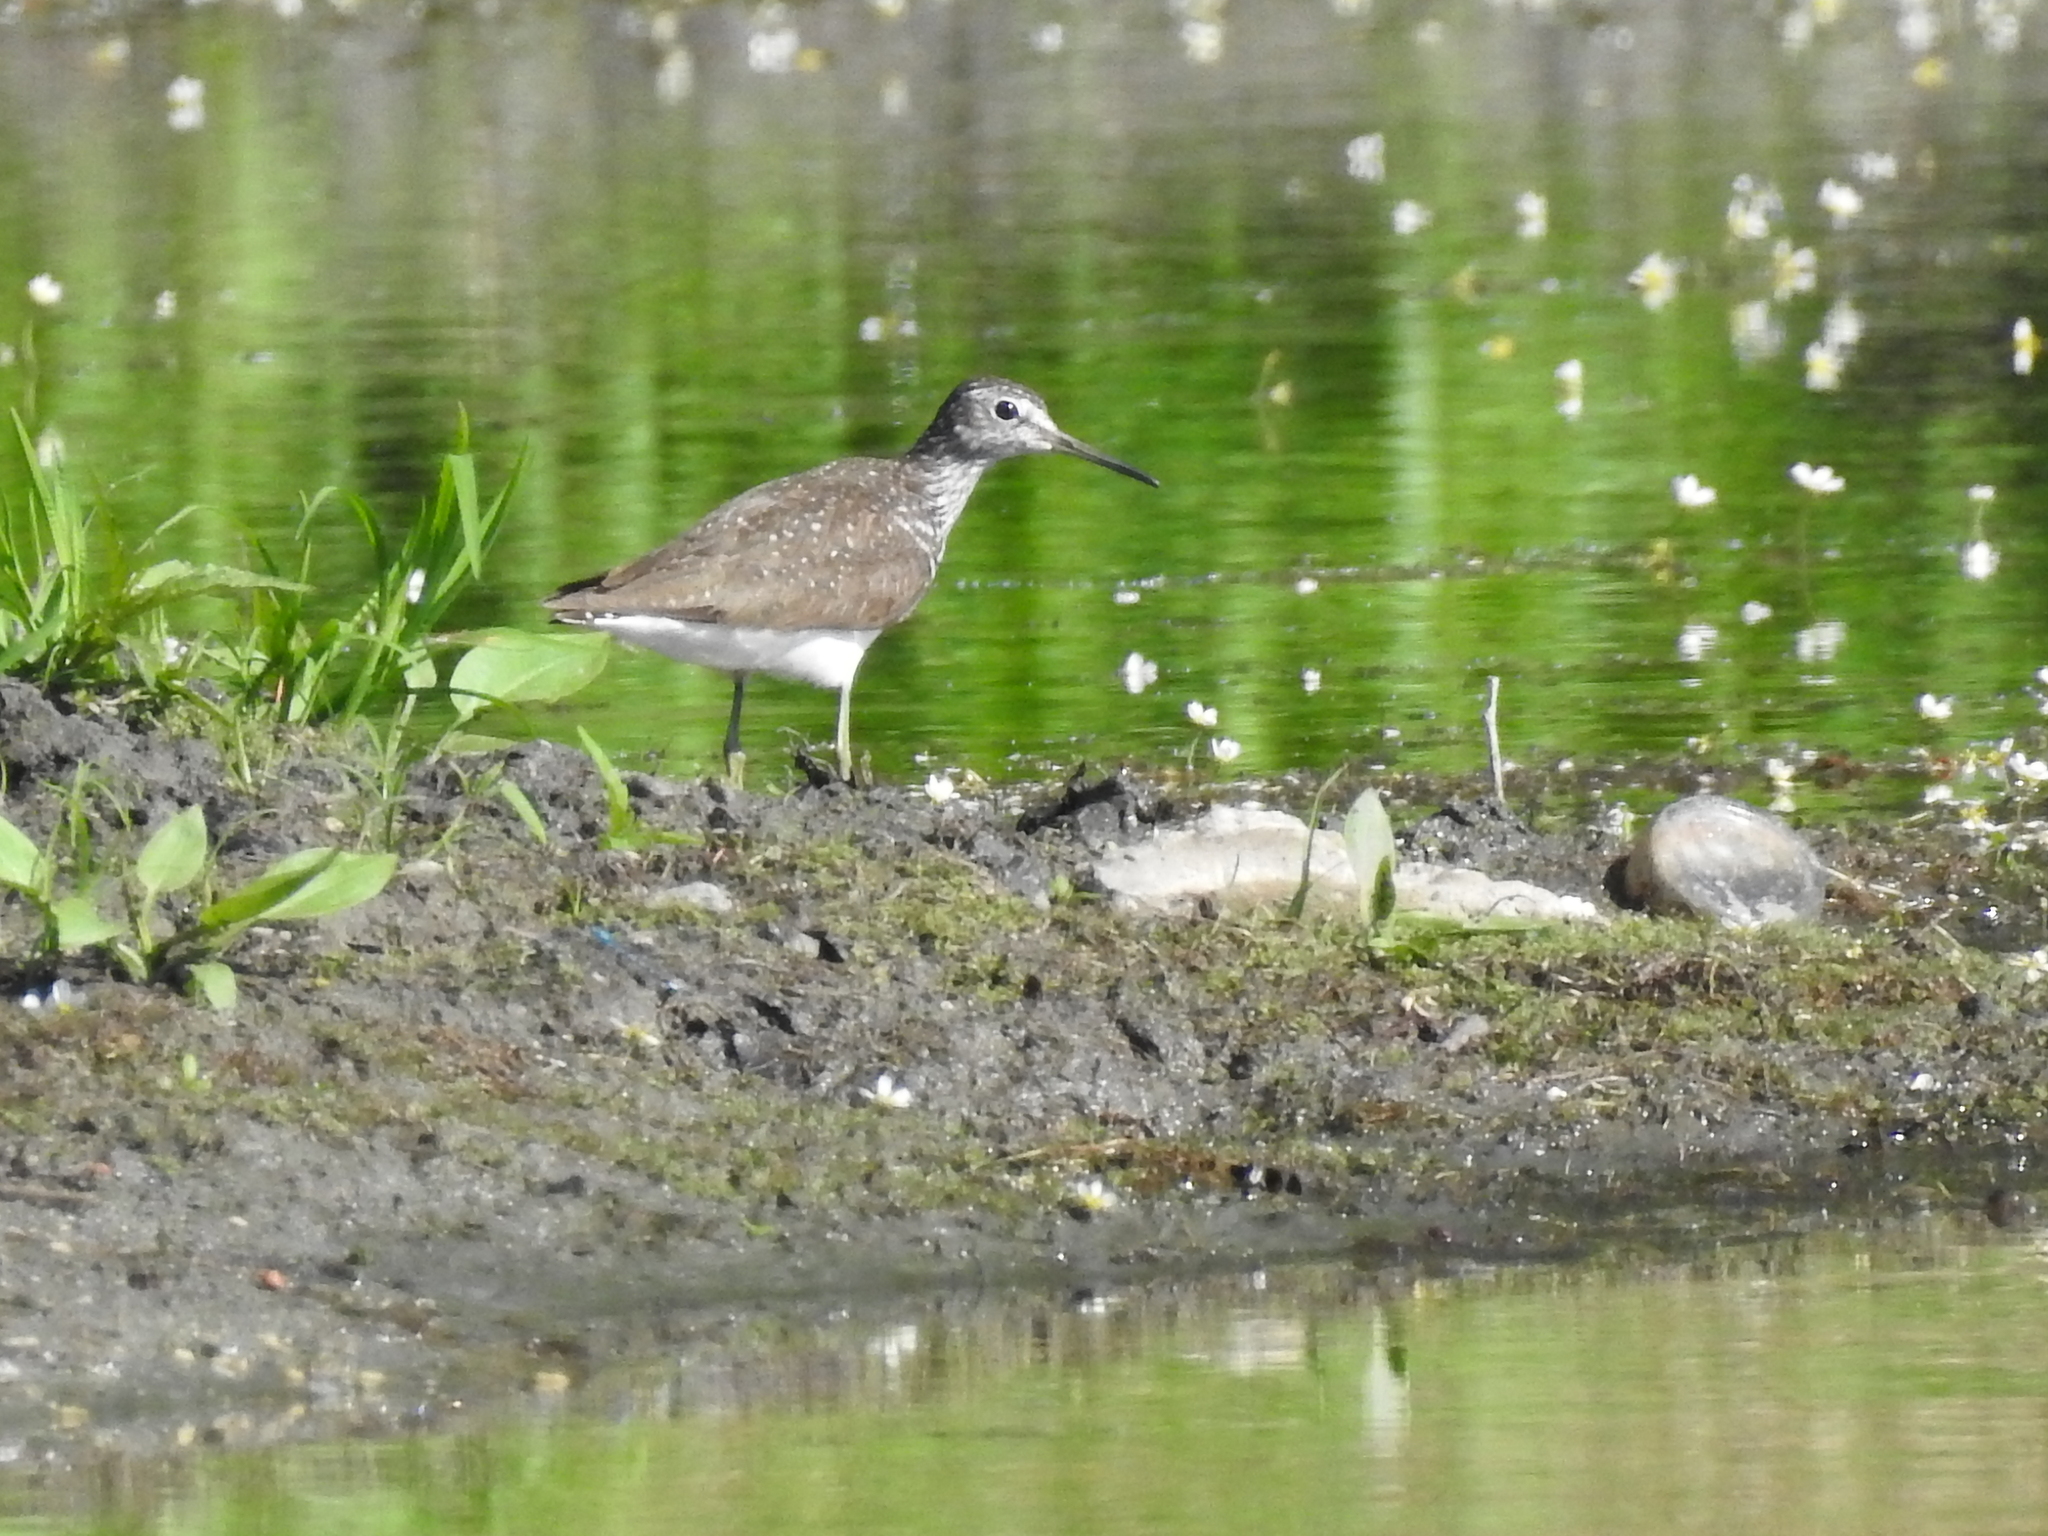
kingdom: Animalia
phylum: Chordata
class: Aves
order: Charadriiformes
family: Scolopacidae
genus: Tringa
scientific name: Tringa ochropus
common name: Green sandpiper
